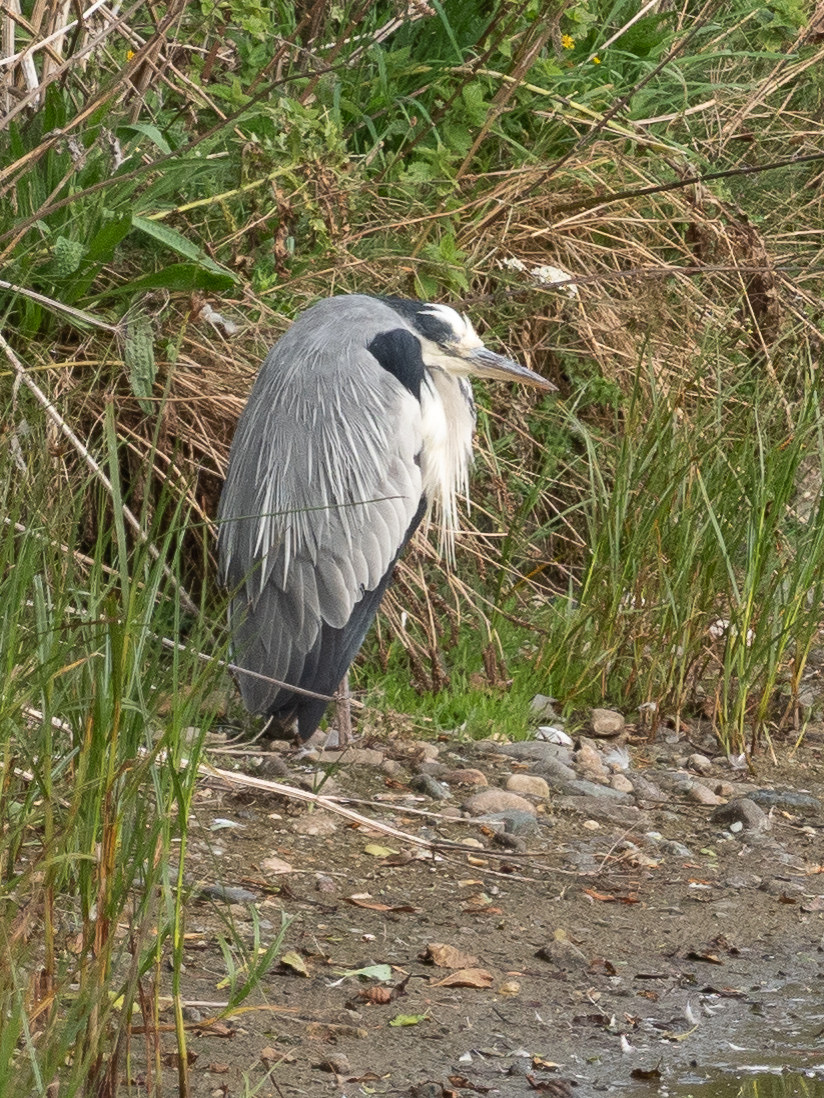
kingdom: Animalia
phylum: Chordata
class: Aves
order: Pelecaniformes
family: Ardeidae
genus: Ardea
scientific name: Ardea cinerea
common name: Grey heron
